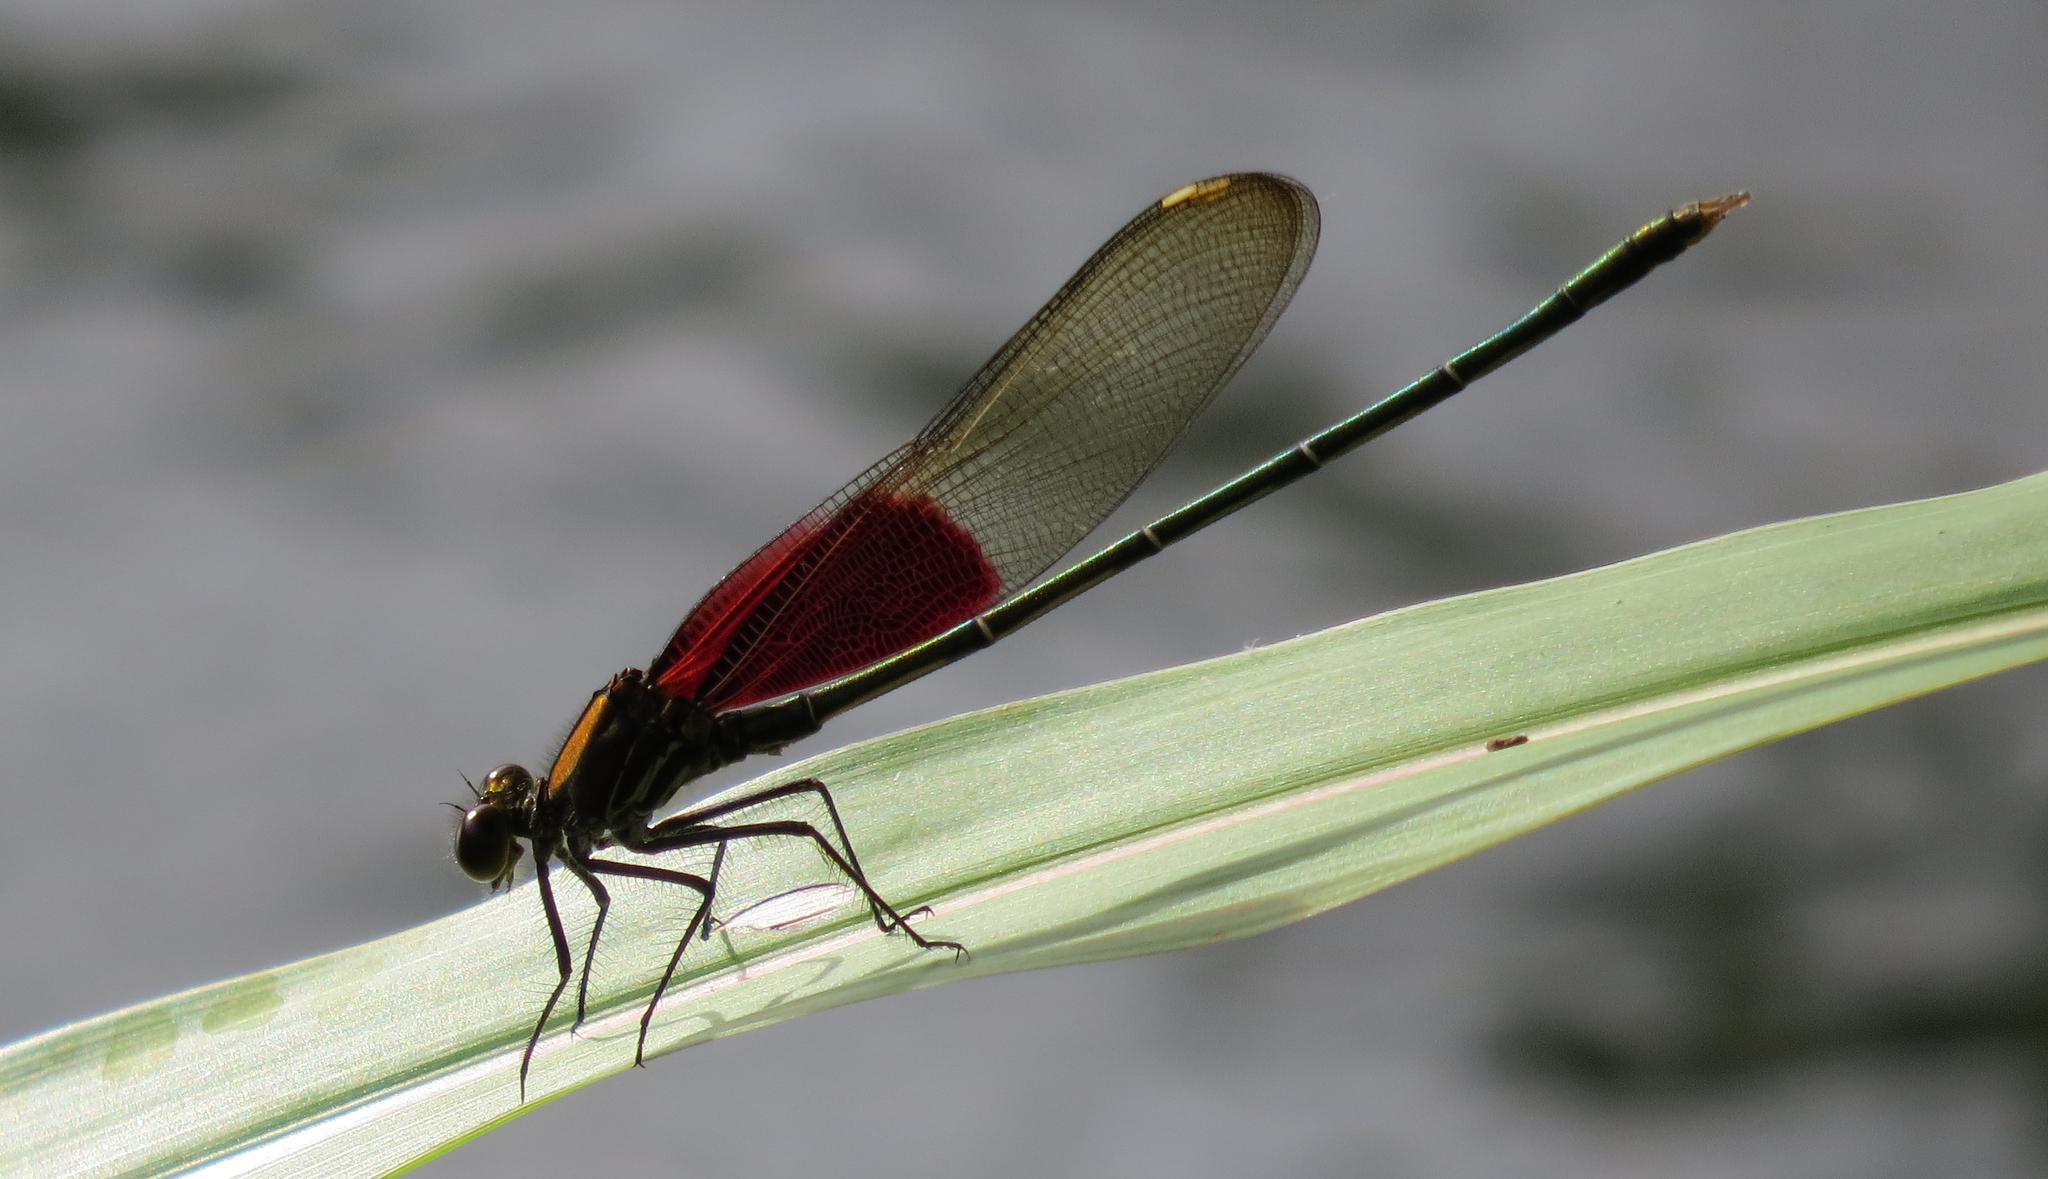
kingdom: Animalia
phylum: Arthropoda
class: Insecta
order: Odonata
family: Calopterygidae
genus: Hetaerina
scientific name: Hetaerina americana
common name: American rubyspot
